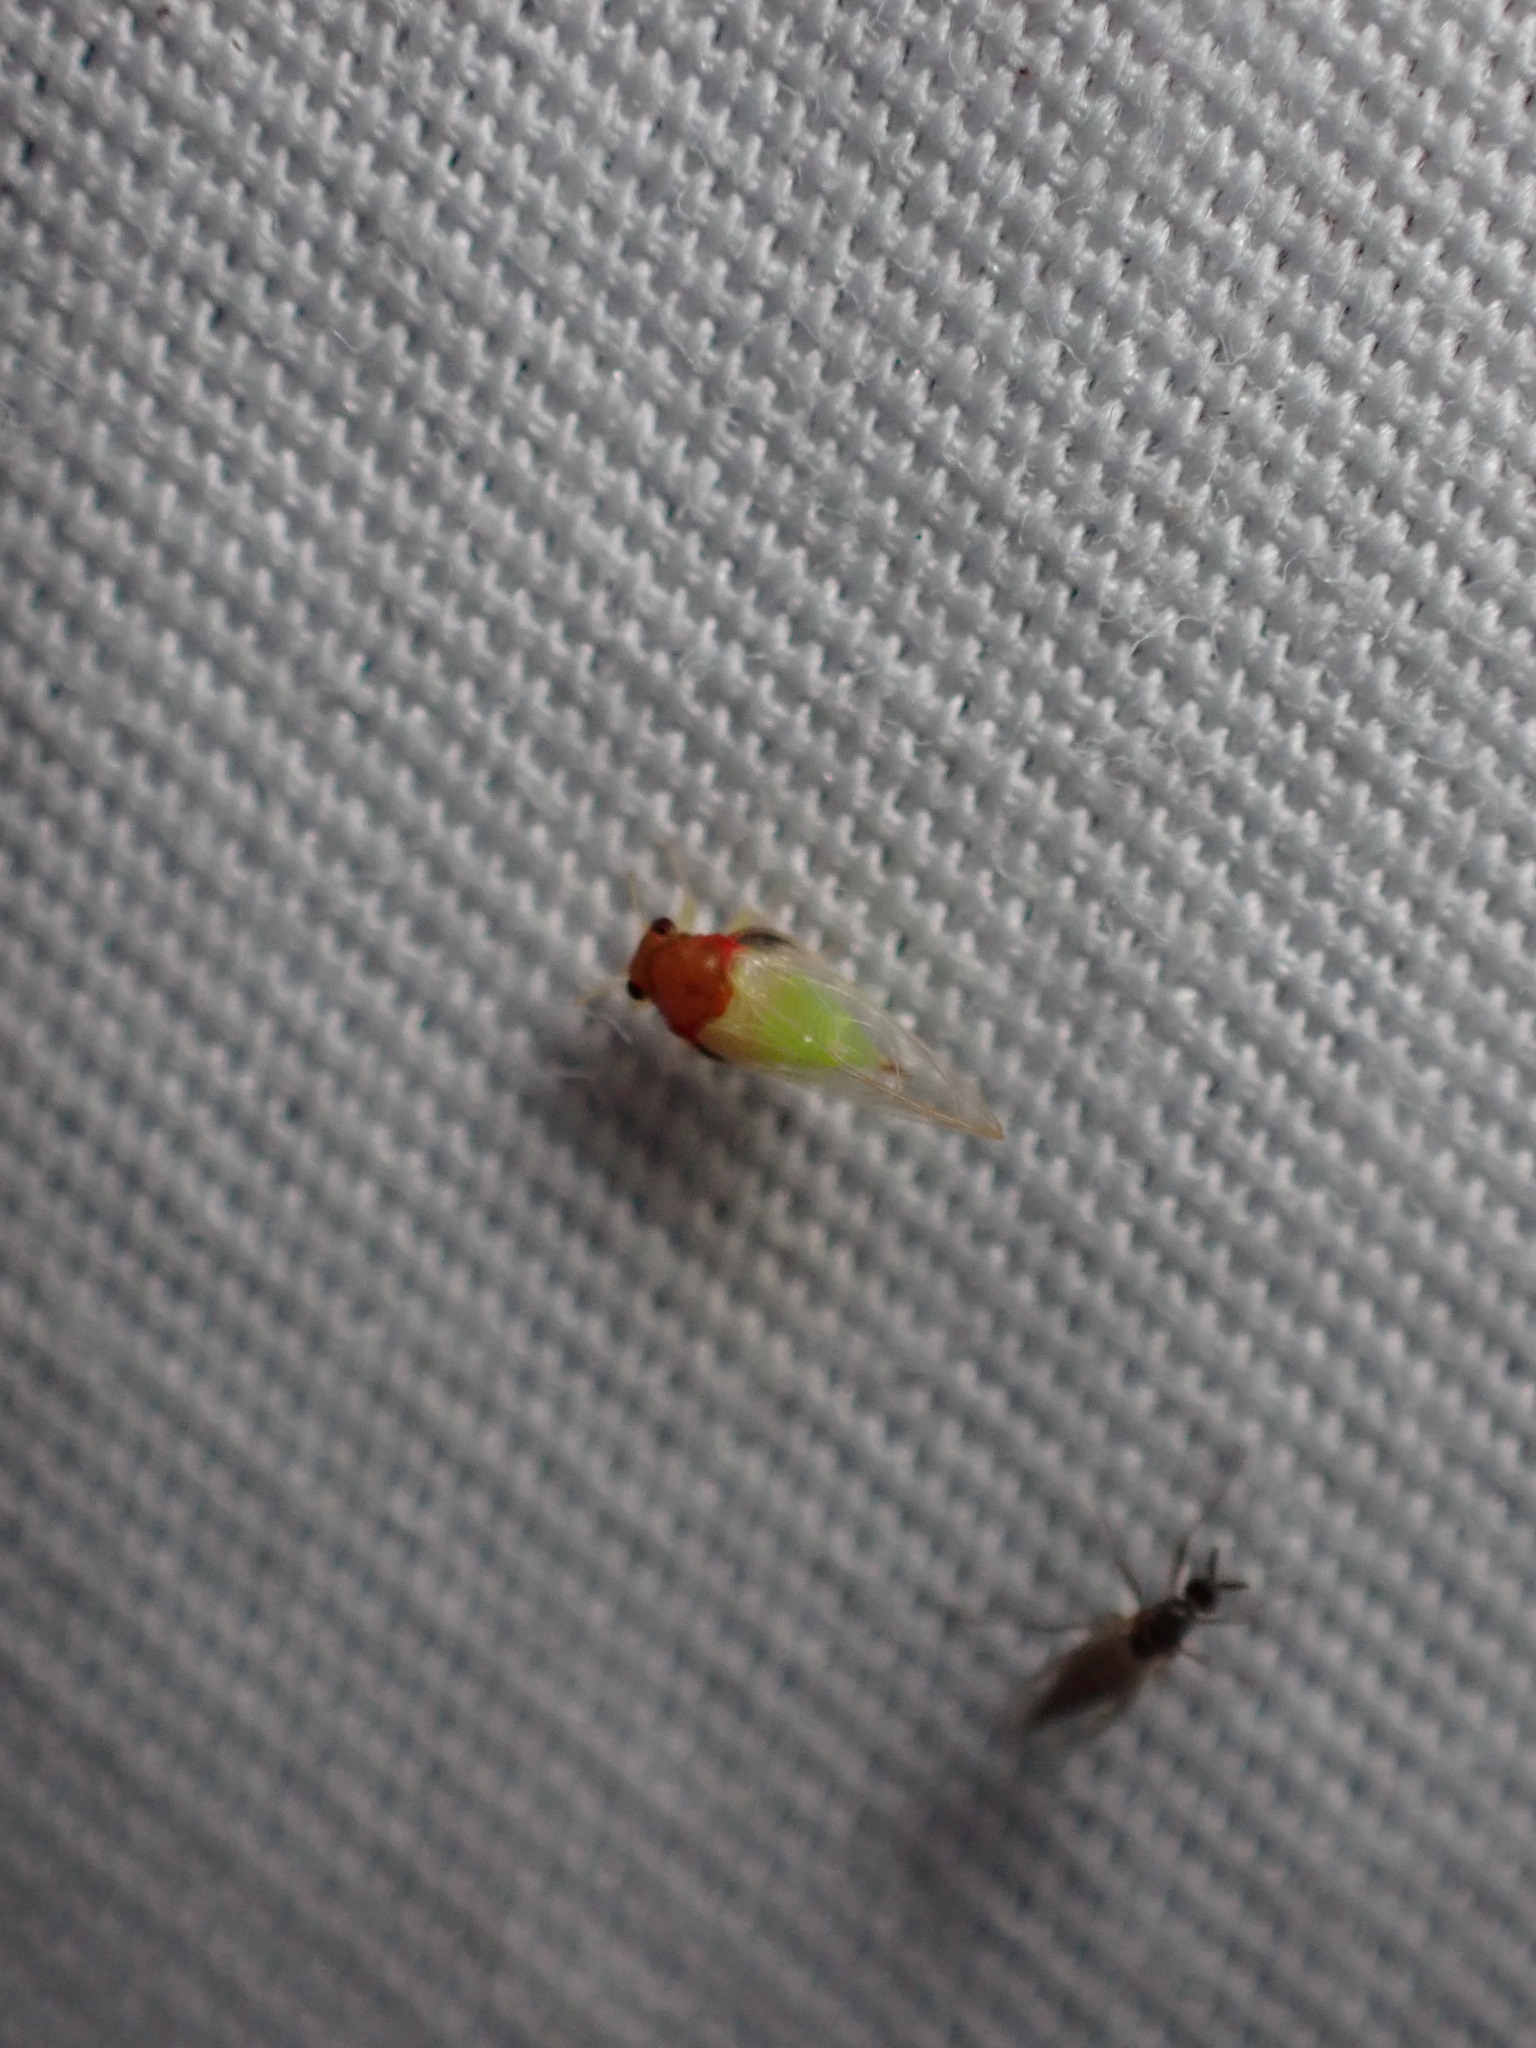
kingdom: Animalia
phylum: Arthropoda
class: Insecta
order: Hemiptera
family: Calophyidae
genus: Calophya
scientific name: Calophya triozomima
